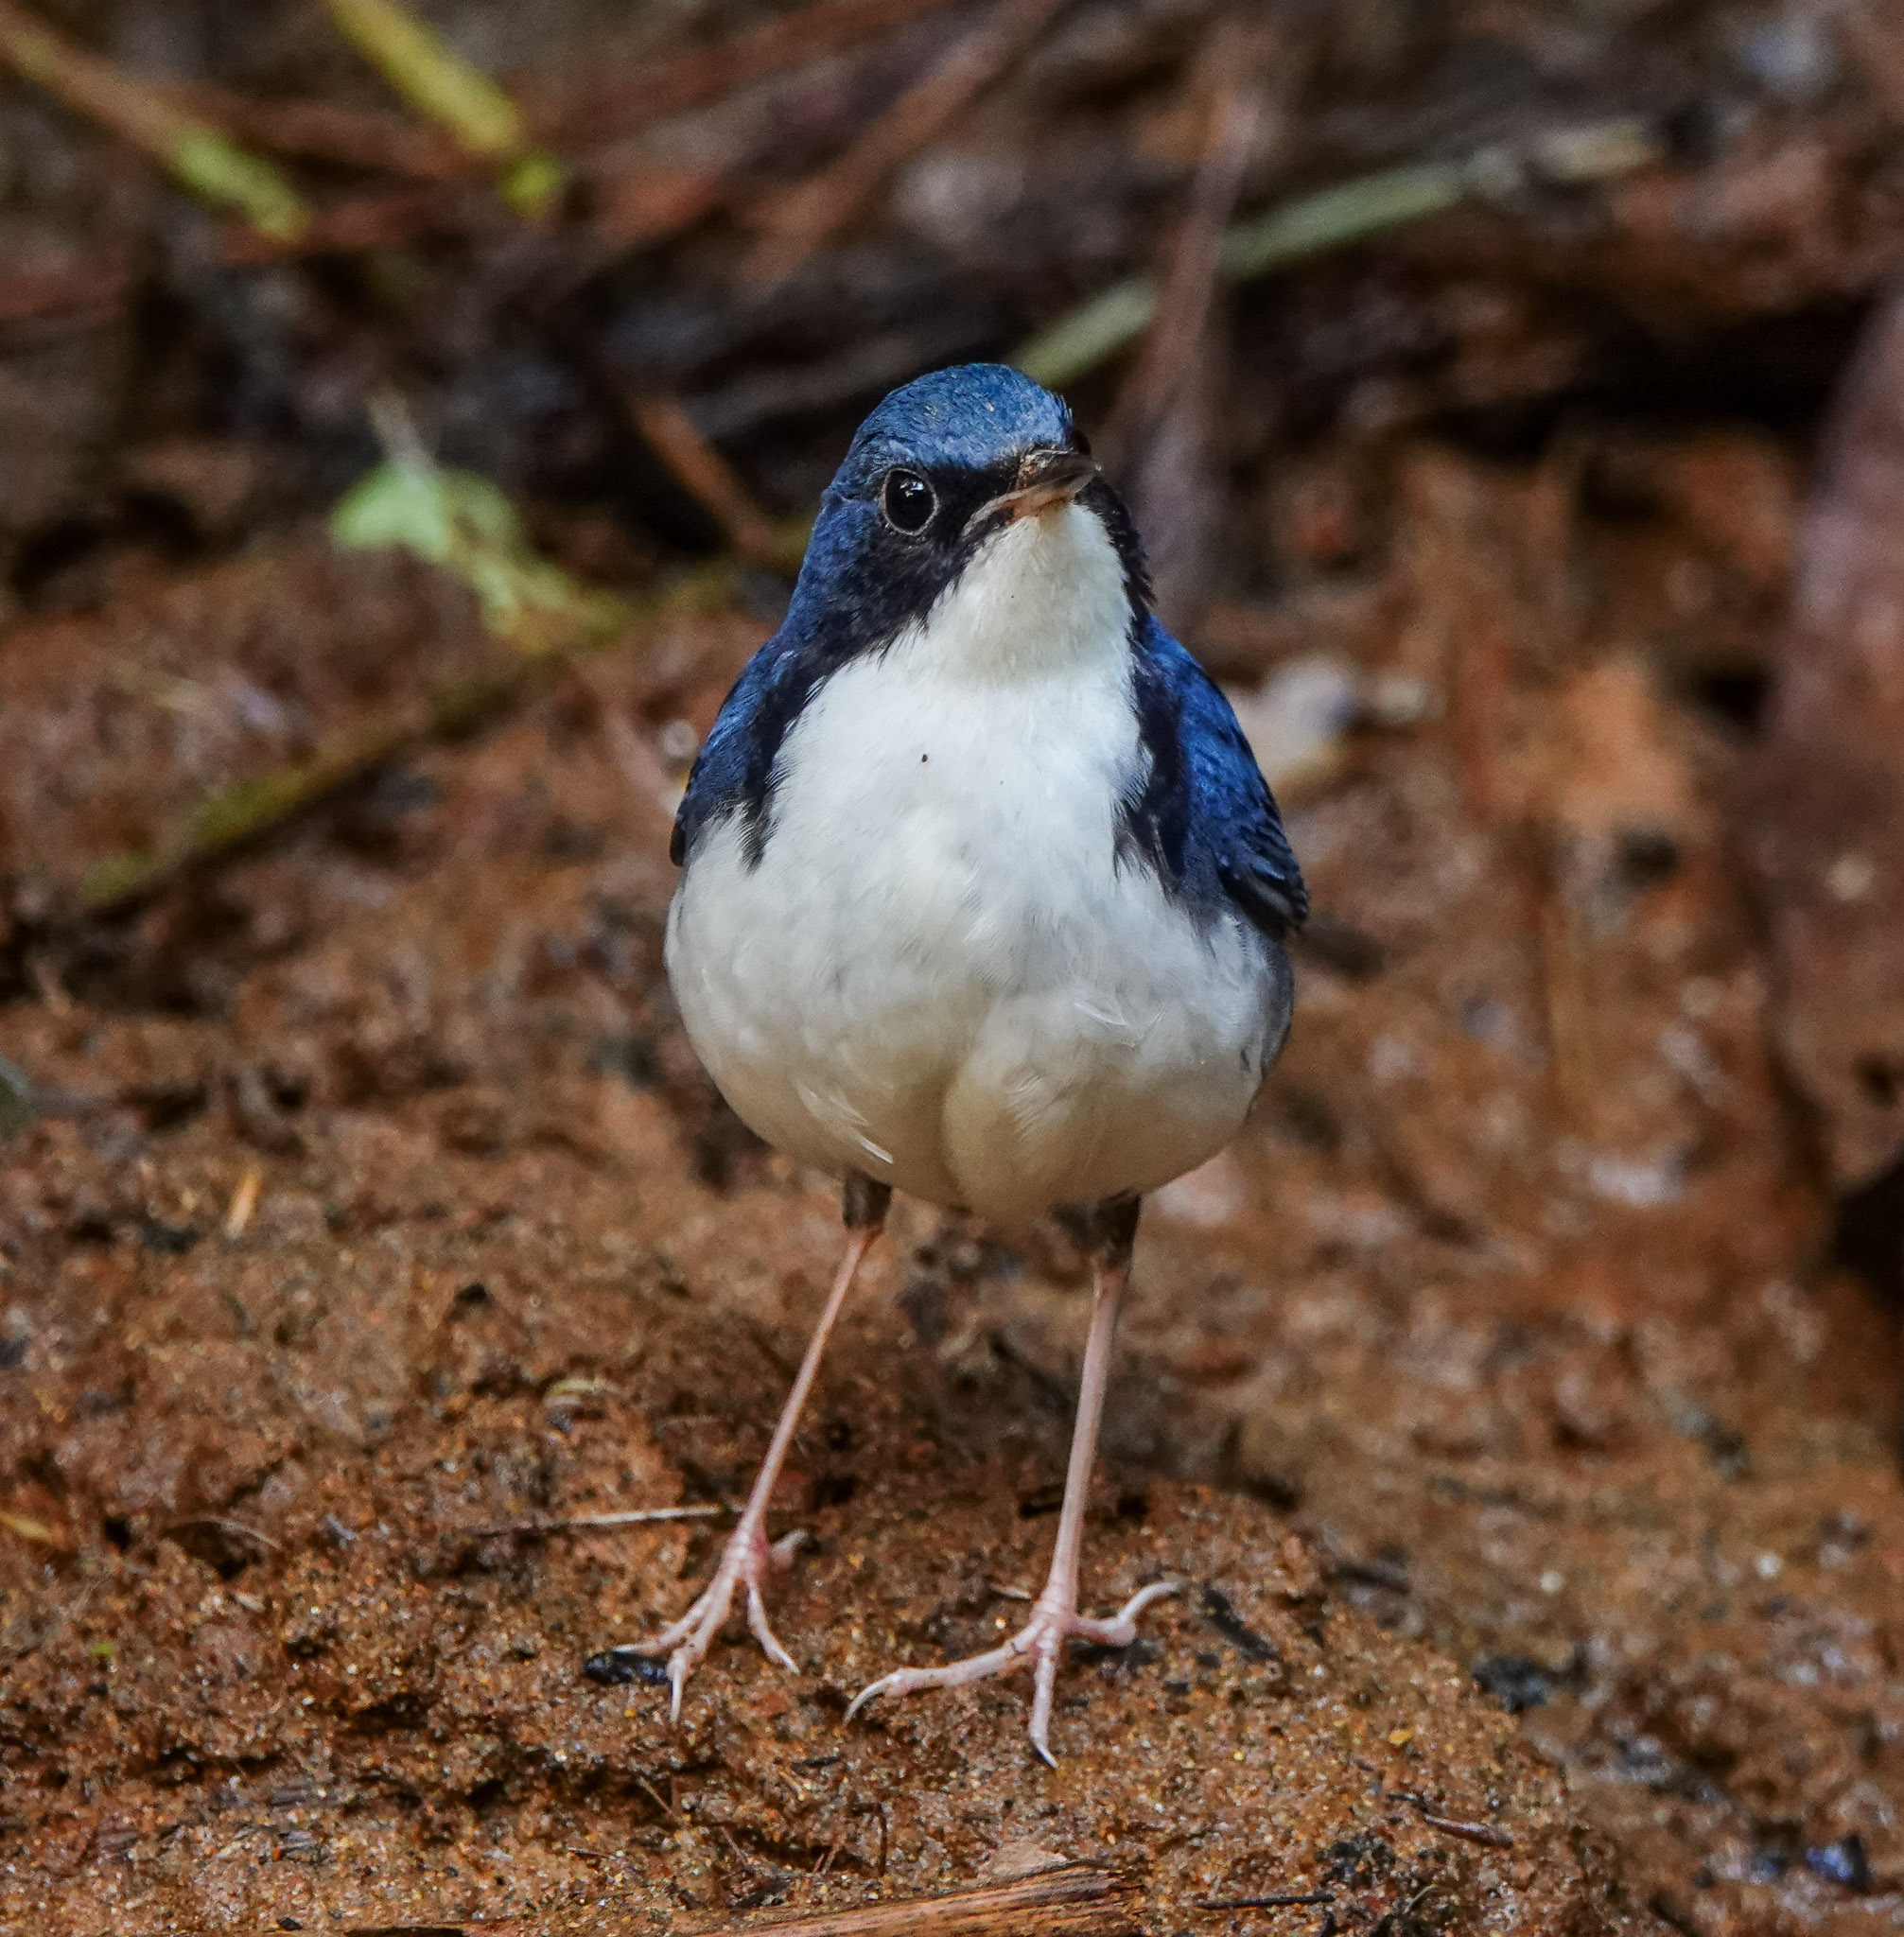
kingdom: Animalia
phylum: Chordata
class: Aves
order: Passeriformes
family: Muscicapidae
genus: Luscinia
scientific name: Luscinia cyane
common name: Siberian blue robin
